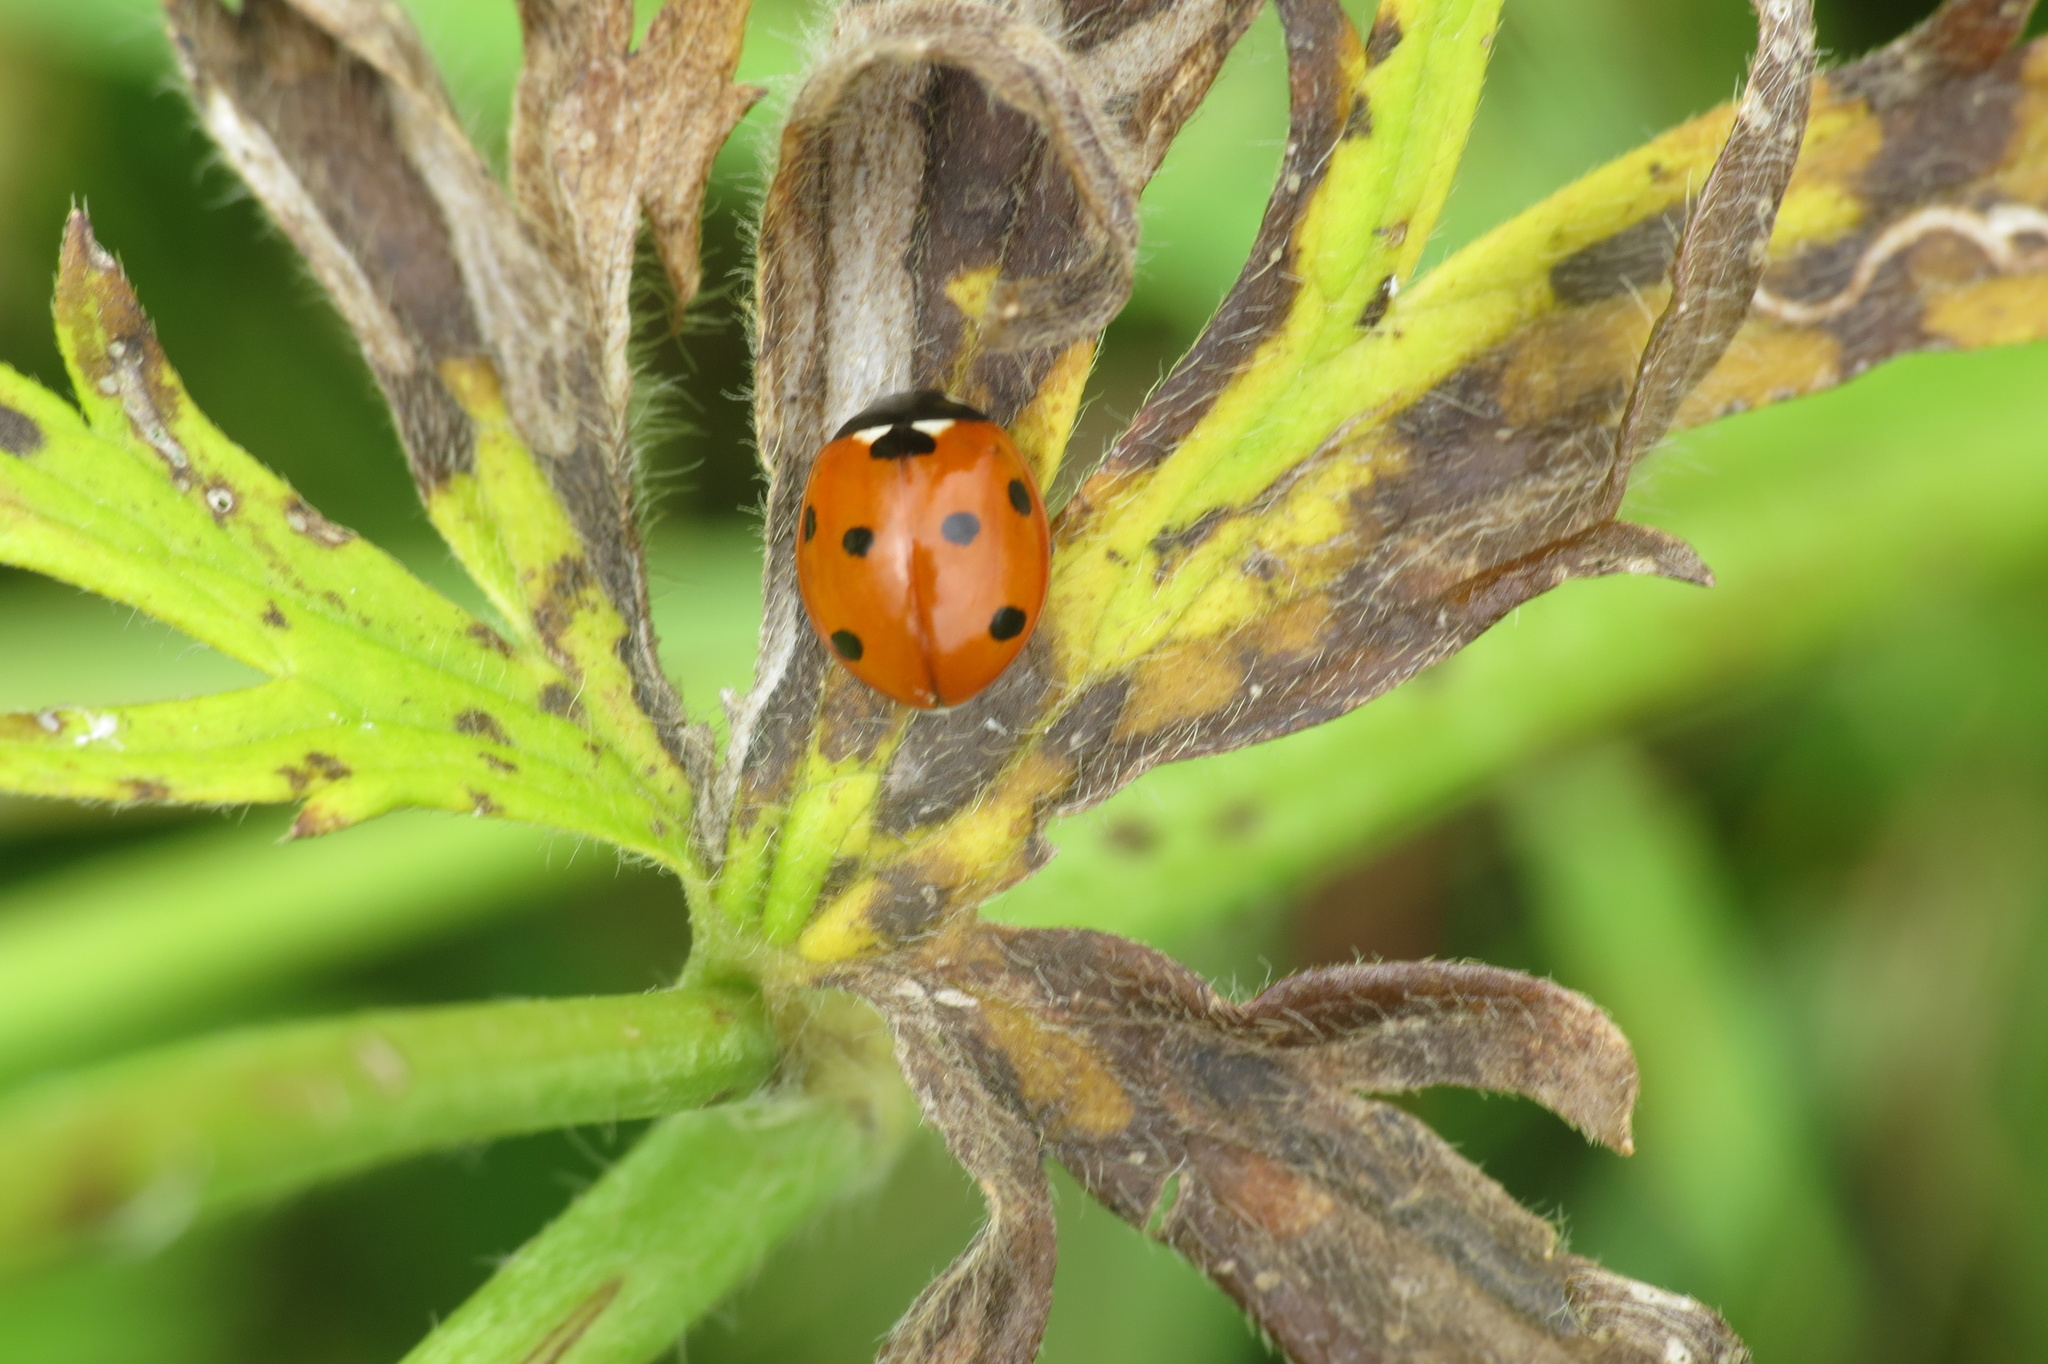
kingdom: Animalia
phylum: Arthropoda
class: Insecta
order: Coleoptera
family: Coccinellidae
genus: Coccinella
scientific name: Coccinella septempunctata
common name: Sevenspotted lady beetle
